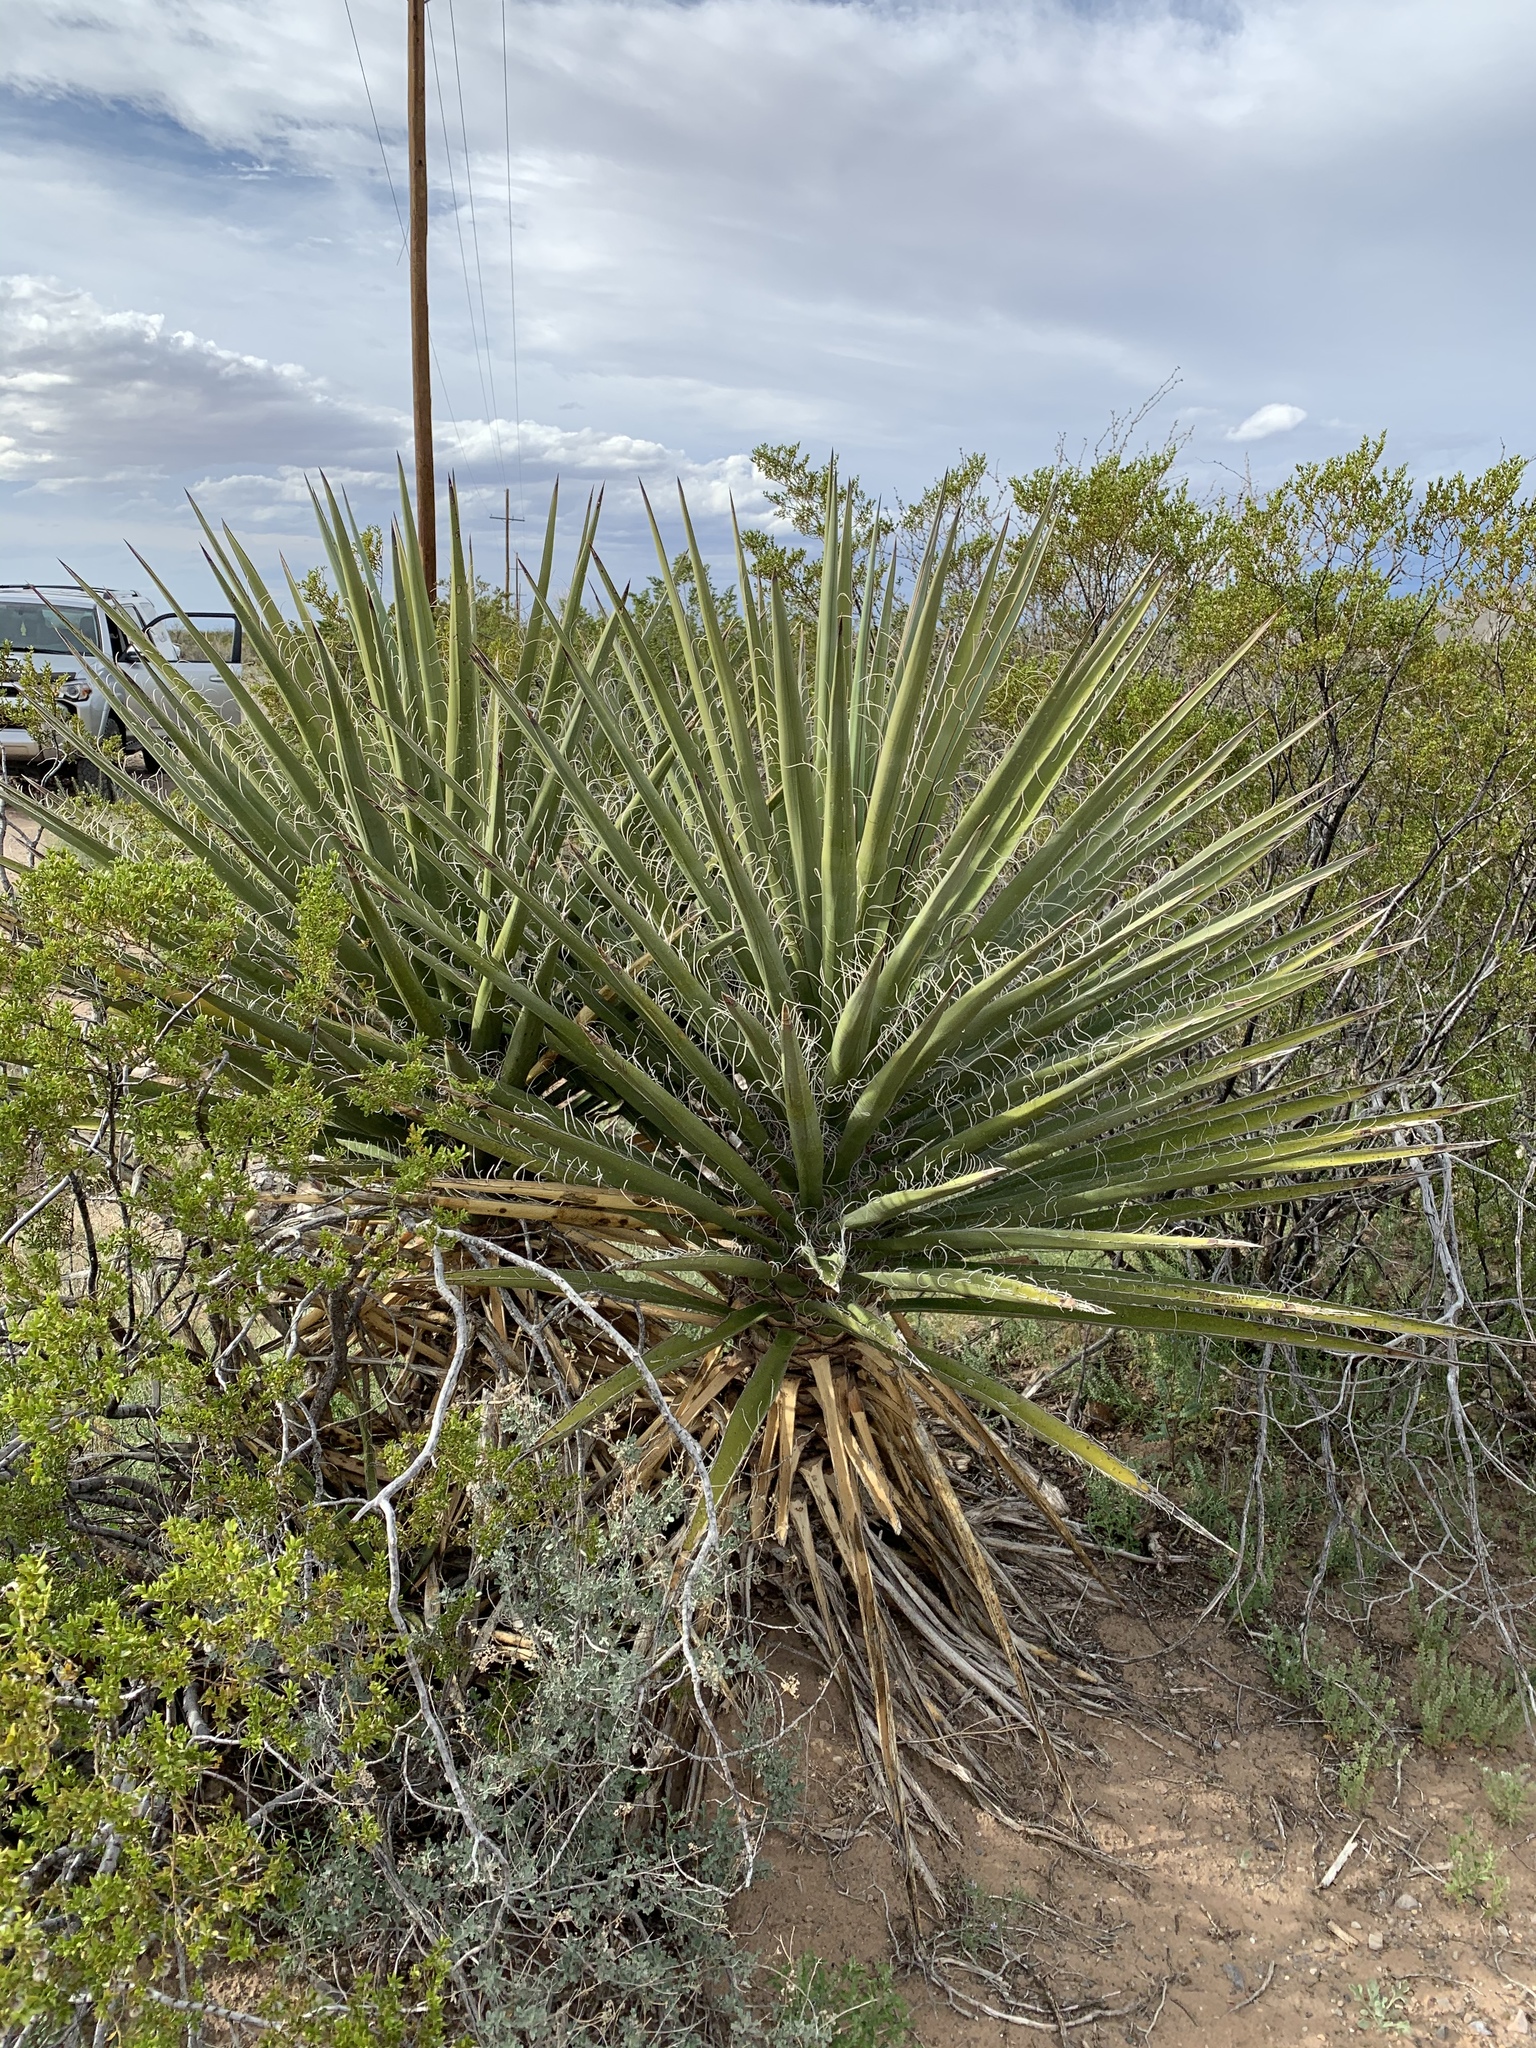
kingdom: Plantae
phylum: Tracheophyta
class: Liliopsida
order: Asparagales
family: Asparagaceae
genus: Yucca
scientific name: Yucca treculiana
